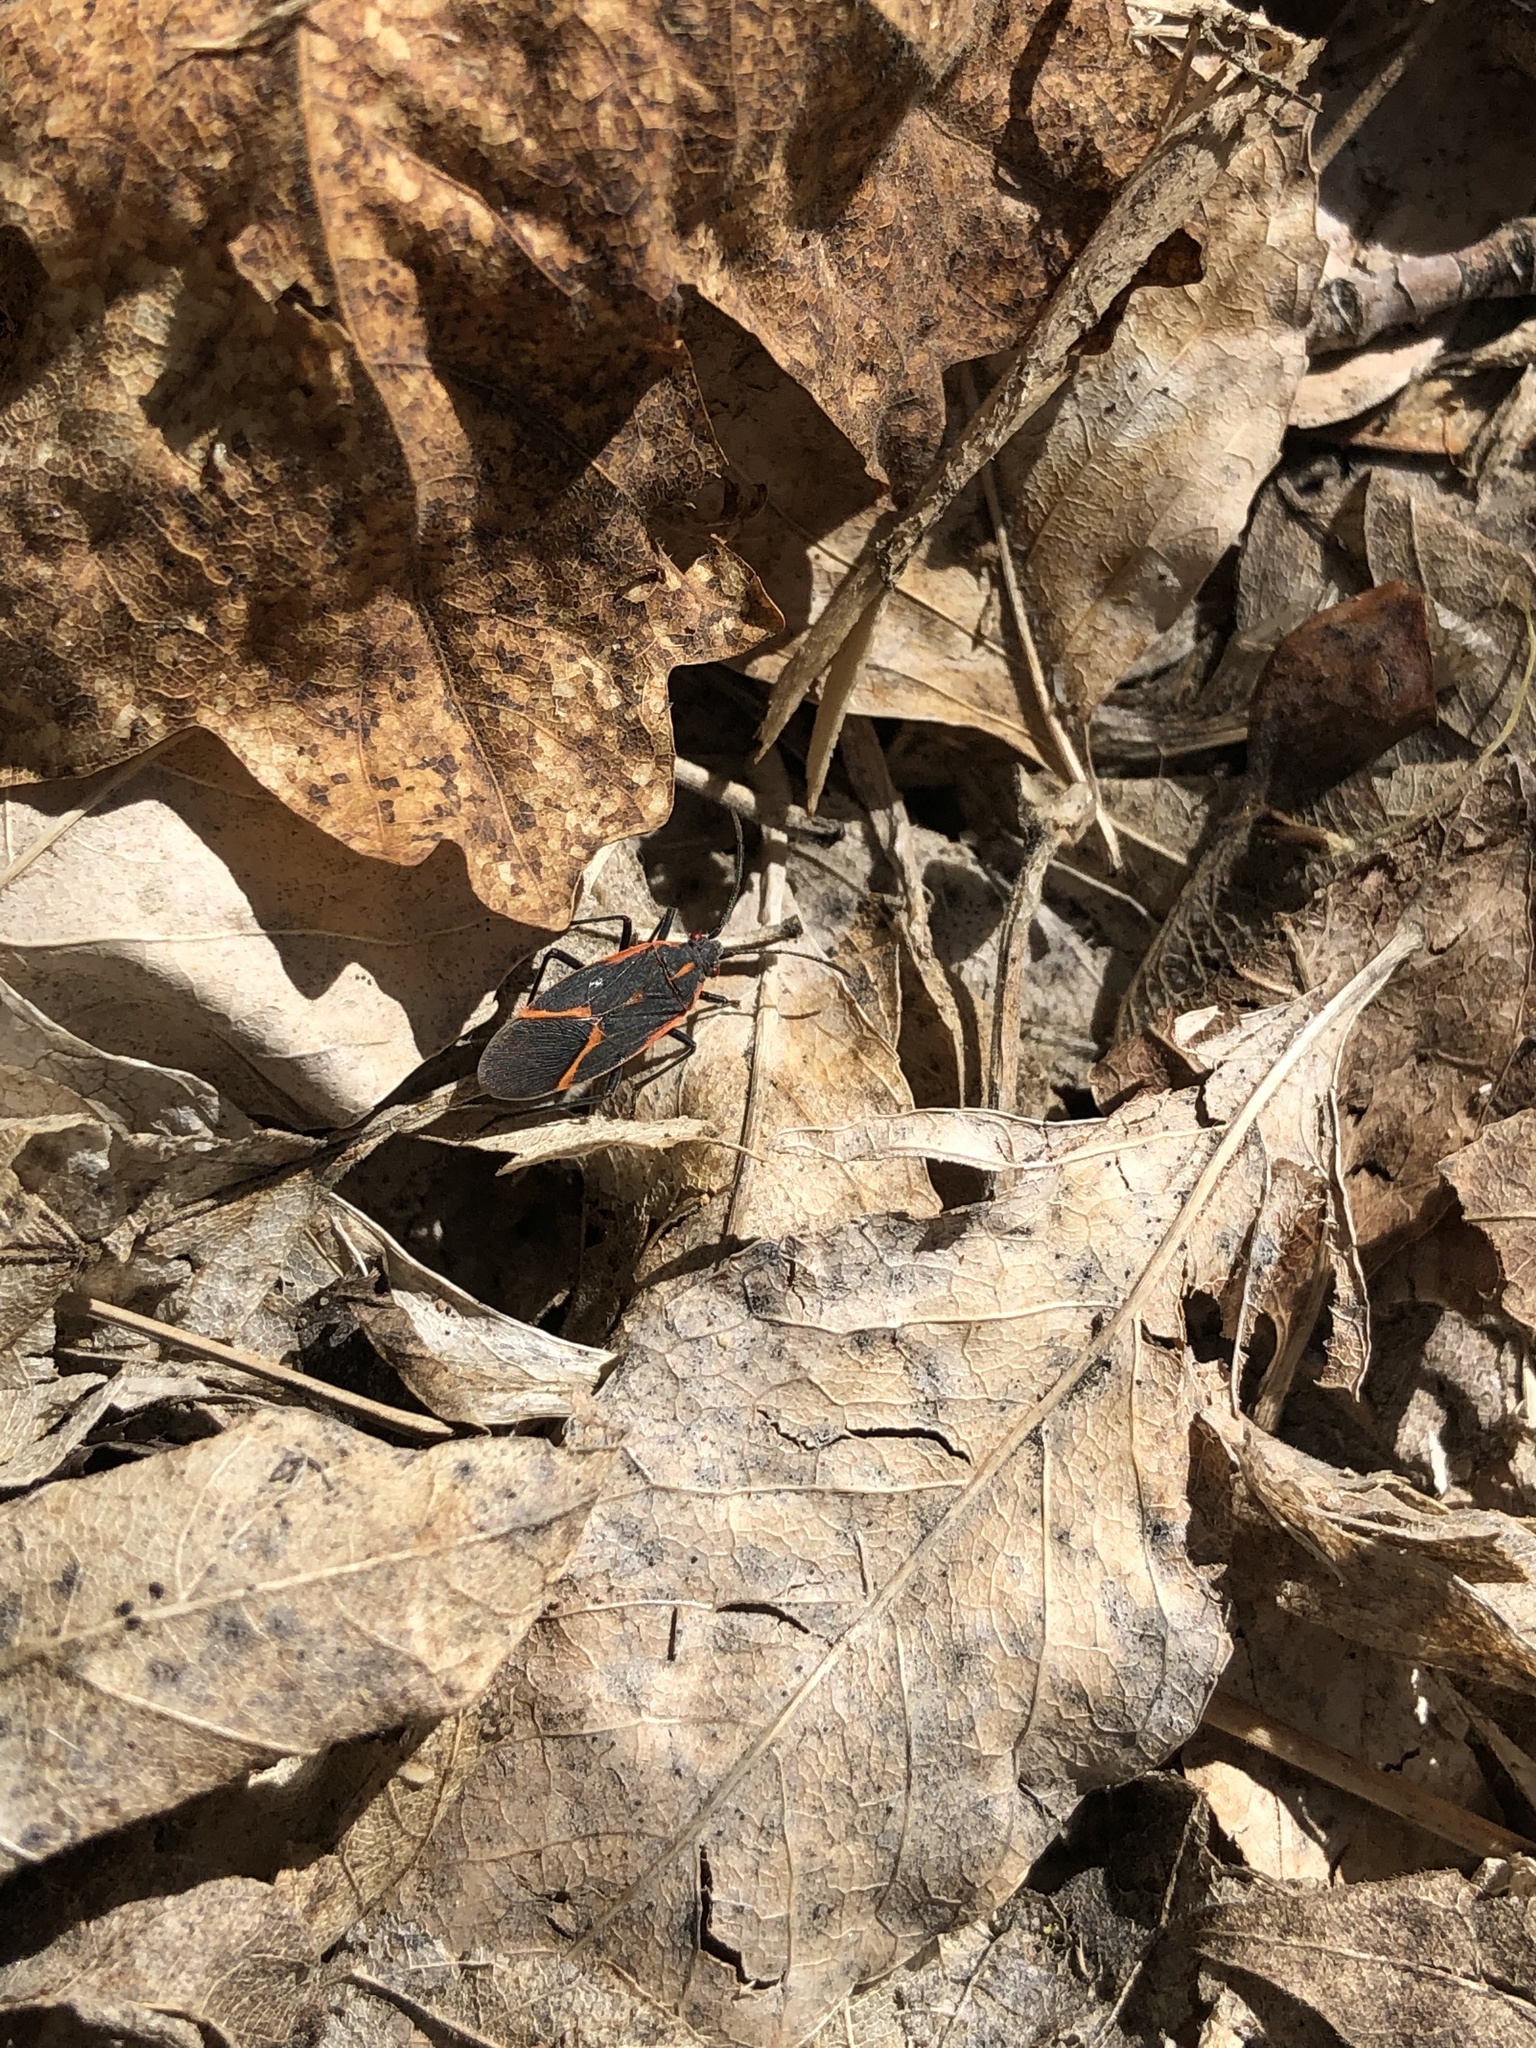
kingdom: Animalia
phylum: Arthropoda
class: Insecta
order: Hemiptera
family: Rhopalidae
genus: Boisea
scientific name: Boisea trivittata
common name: Boxelder bug
